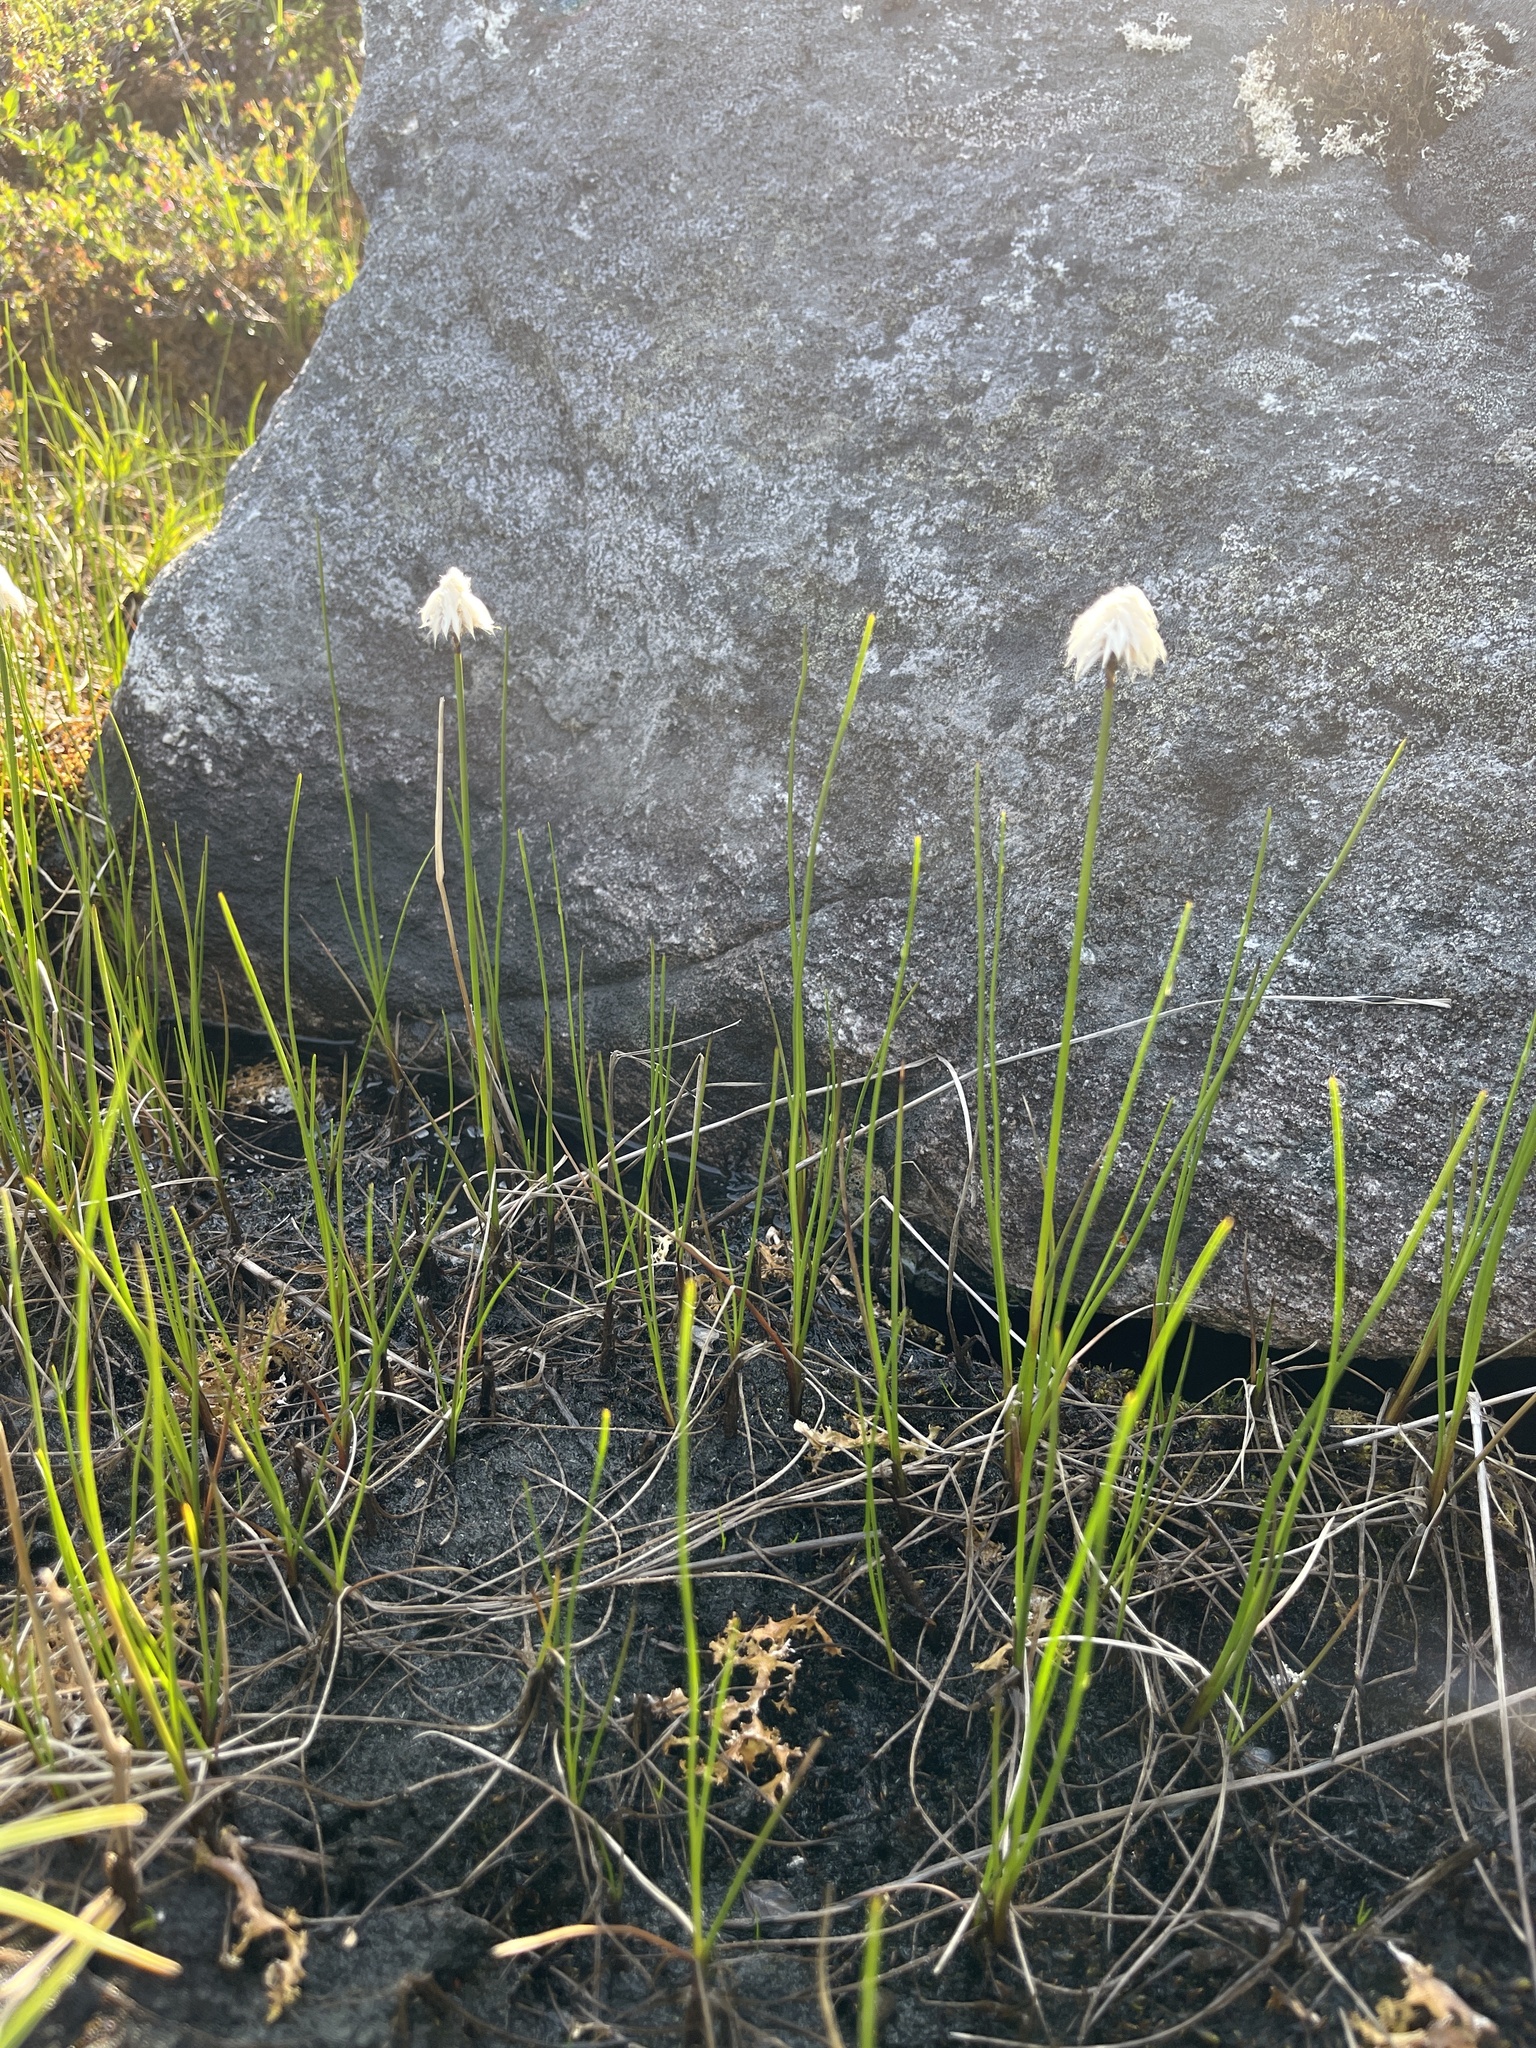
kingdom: Plantae
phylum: Tracheophyta
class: Liliopsida
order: Poales
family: Cyperaceae
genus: Eriophorum
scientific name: Eriophorum scheuchzeri
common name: Scheuchzer's cottongrass
